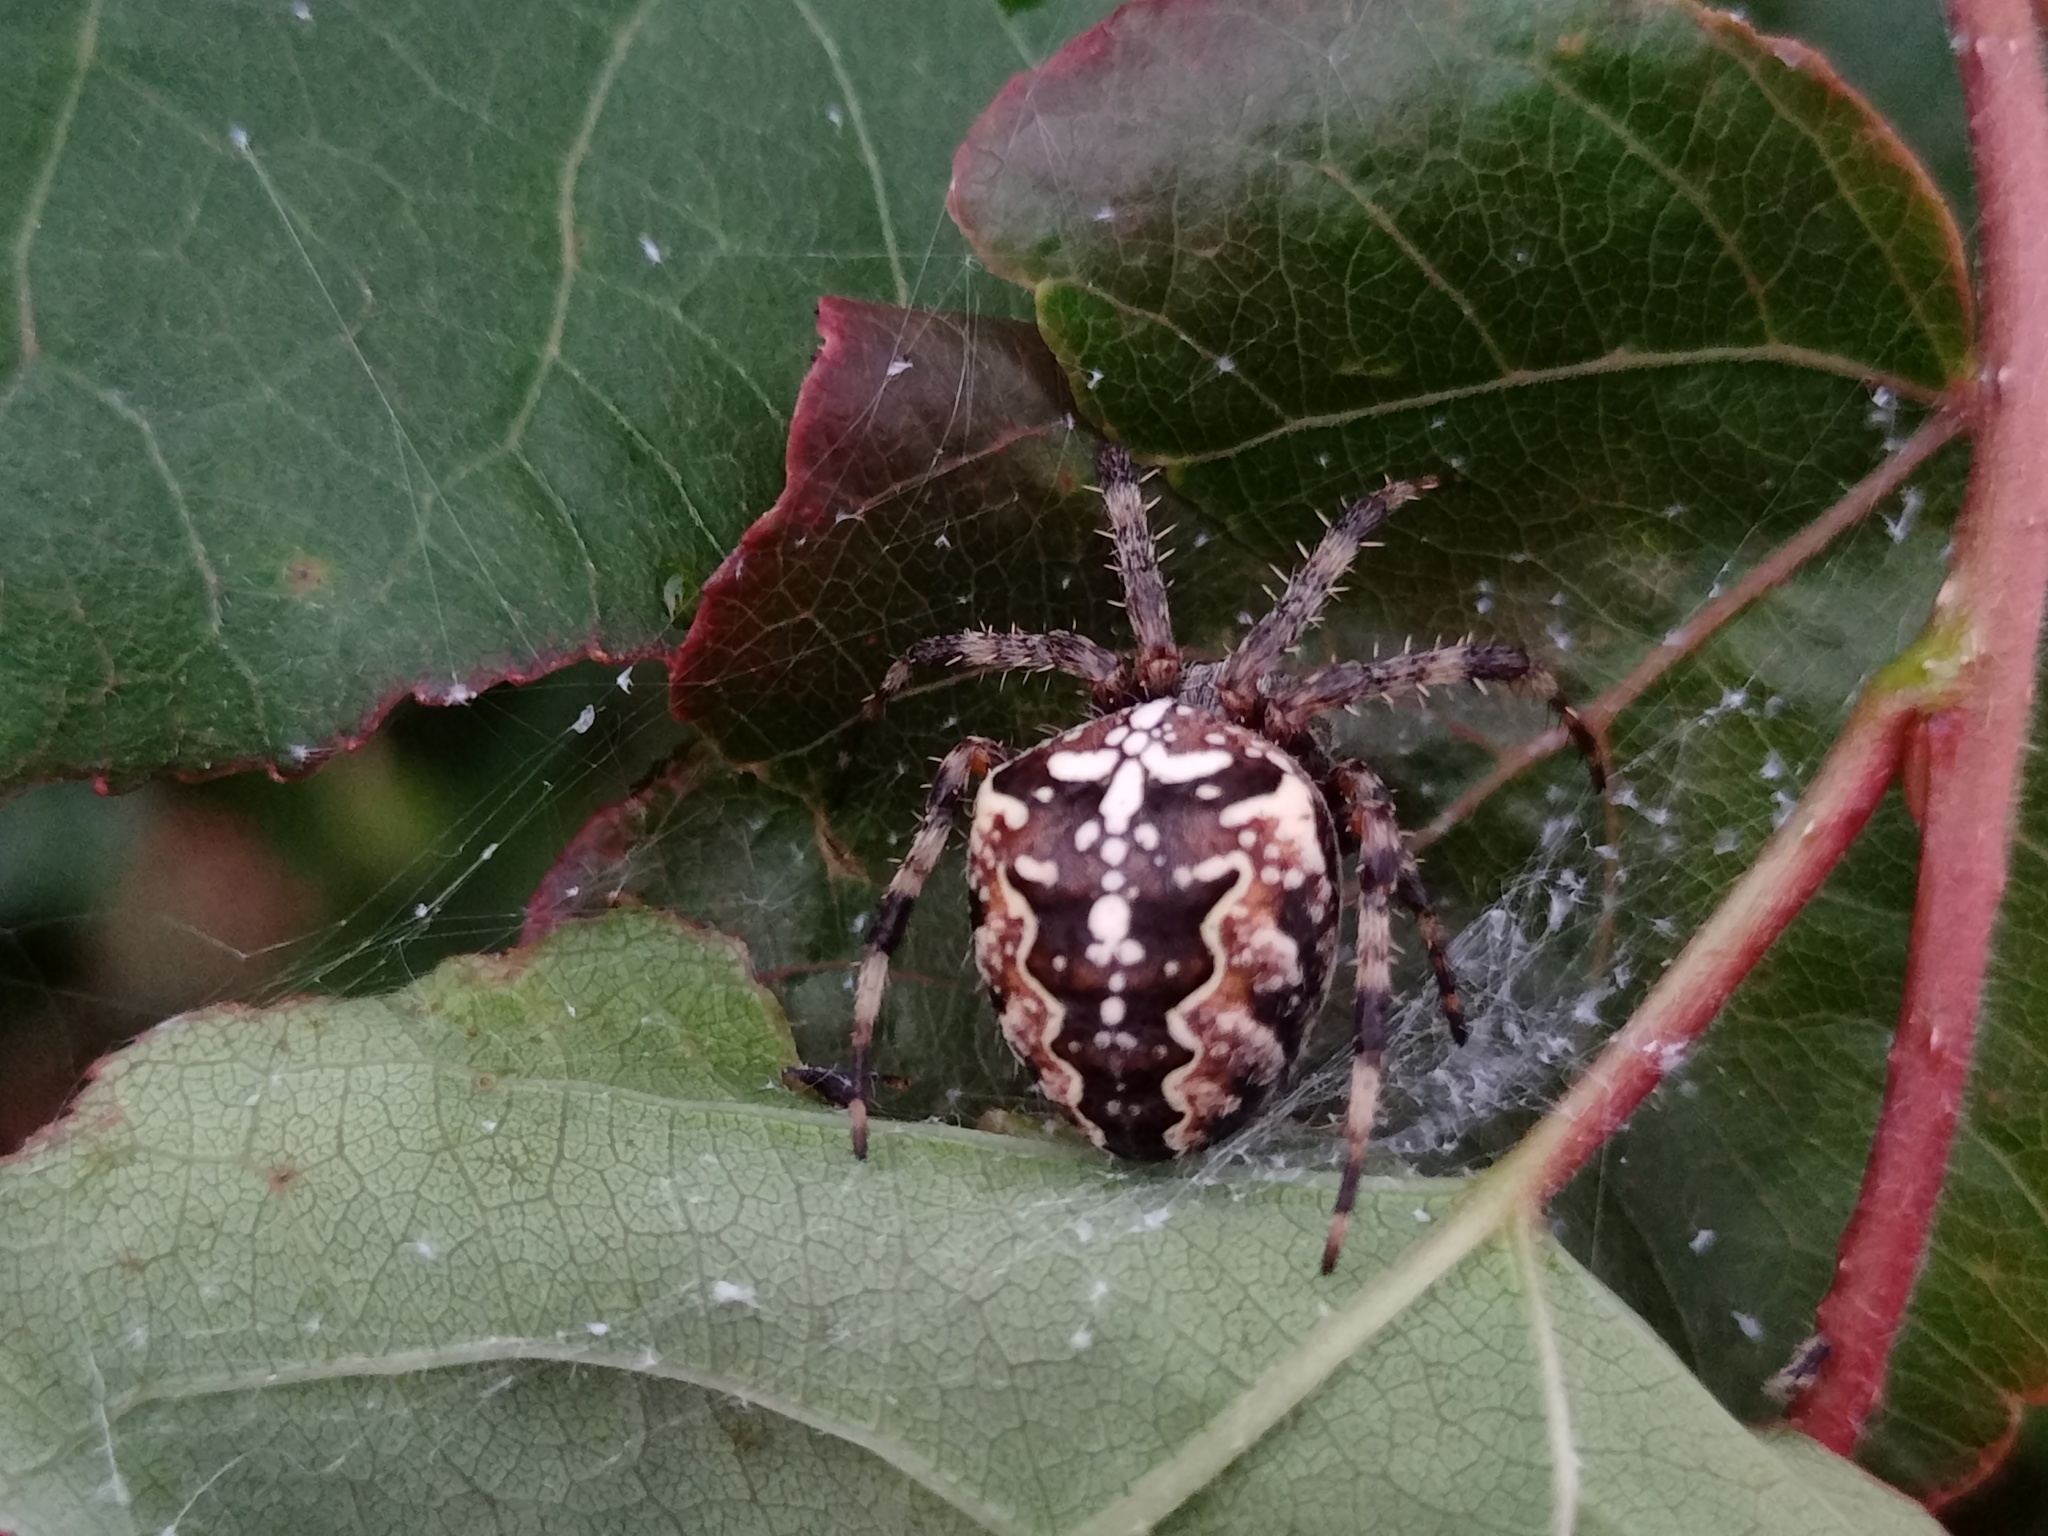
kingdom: Animalia
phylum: Arthropoda
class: Arachnida
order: Araneae
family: Araneidae
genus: Araneus
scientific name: Araneus diadematus
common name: Cross orbweaver
